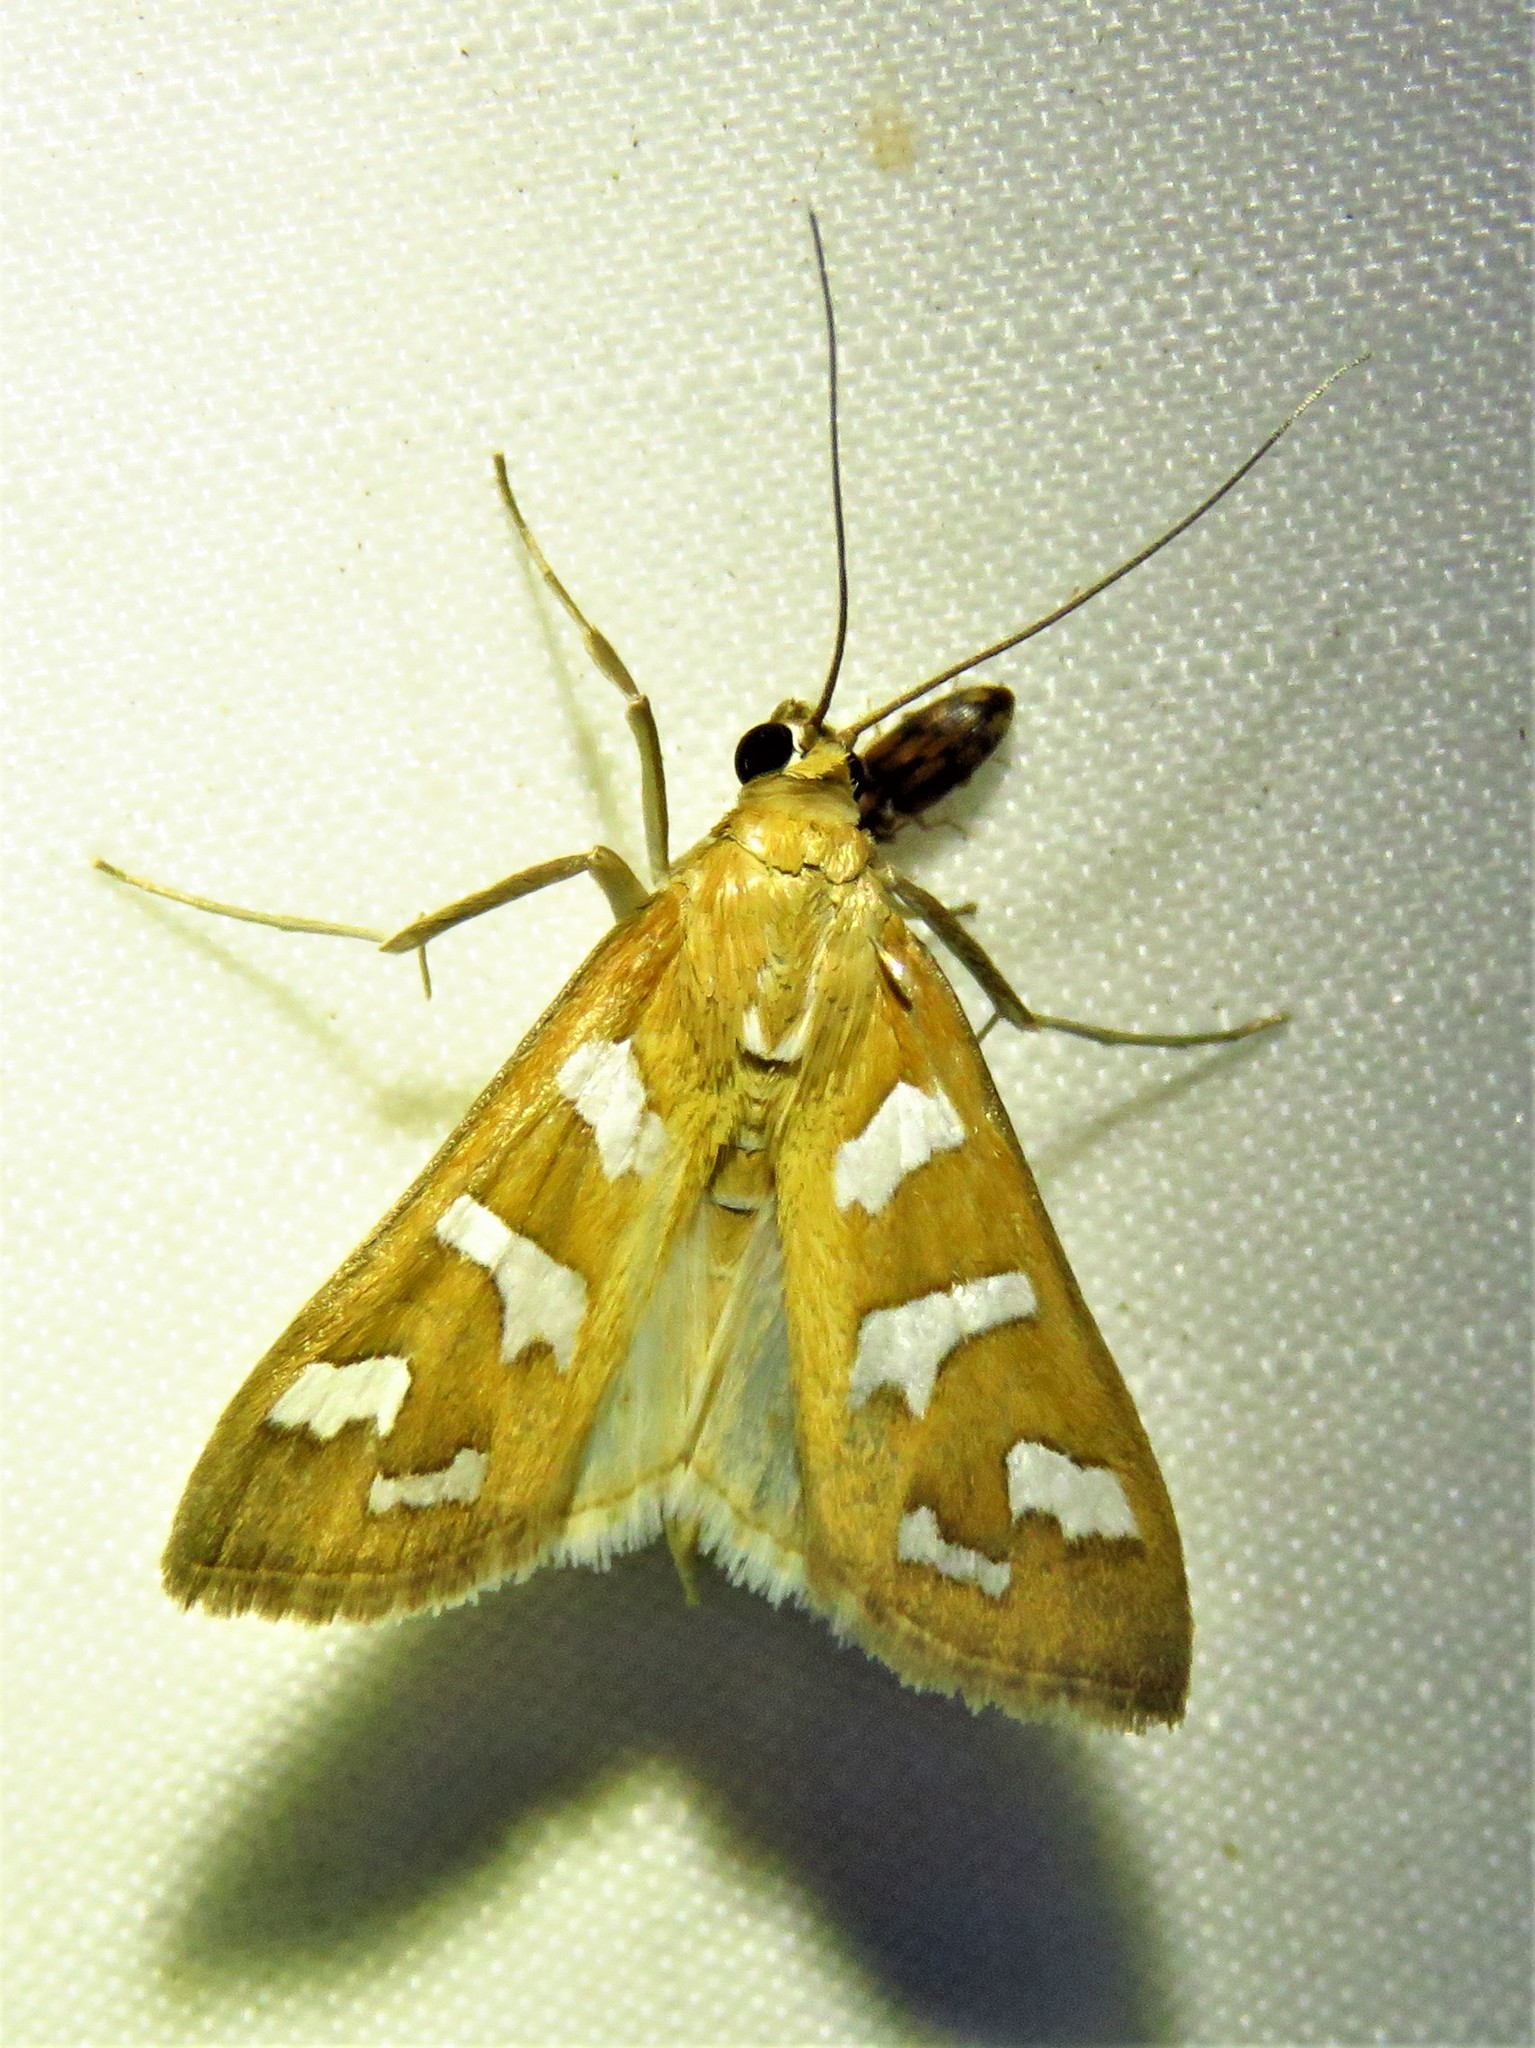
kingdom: Animalia
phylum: Arthropoda
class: Insecta
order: Lepidoptera
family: Crambidae
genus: Diastictis
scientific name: Diastictis fracturalis
